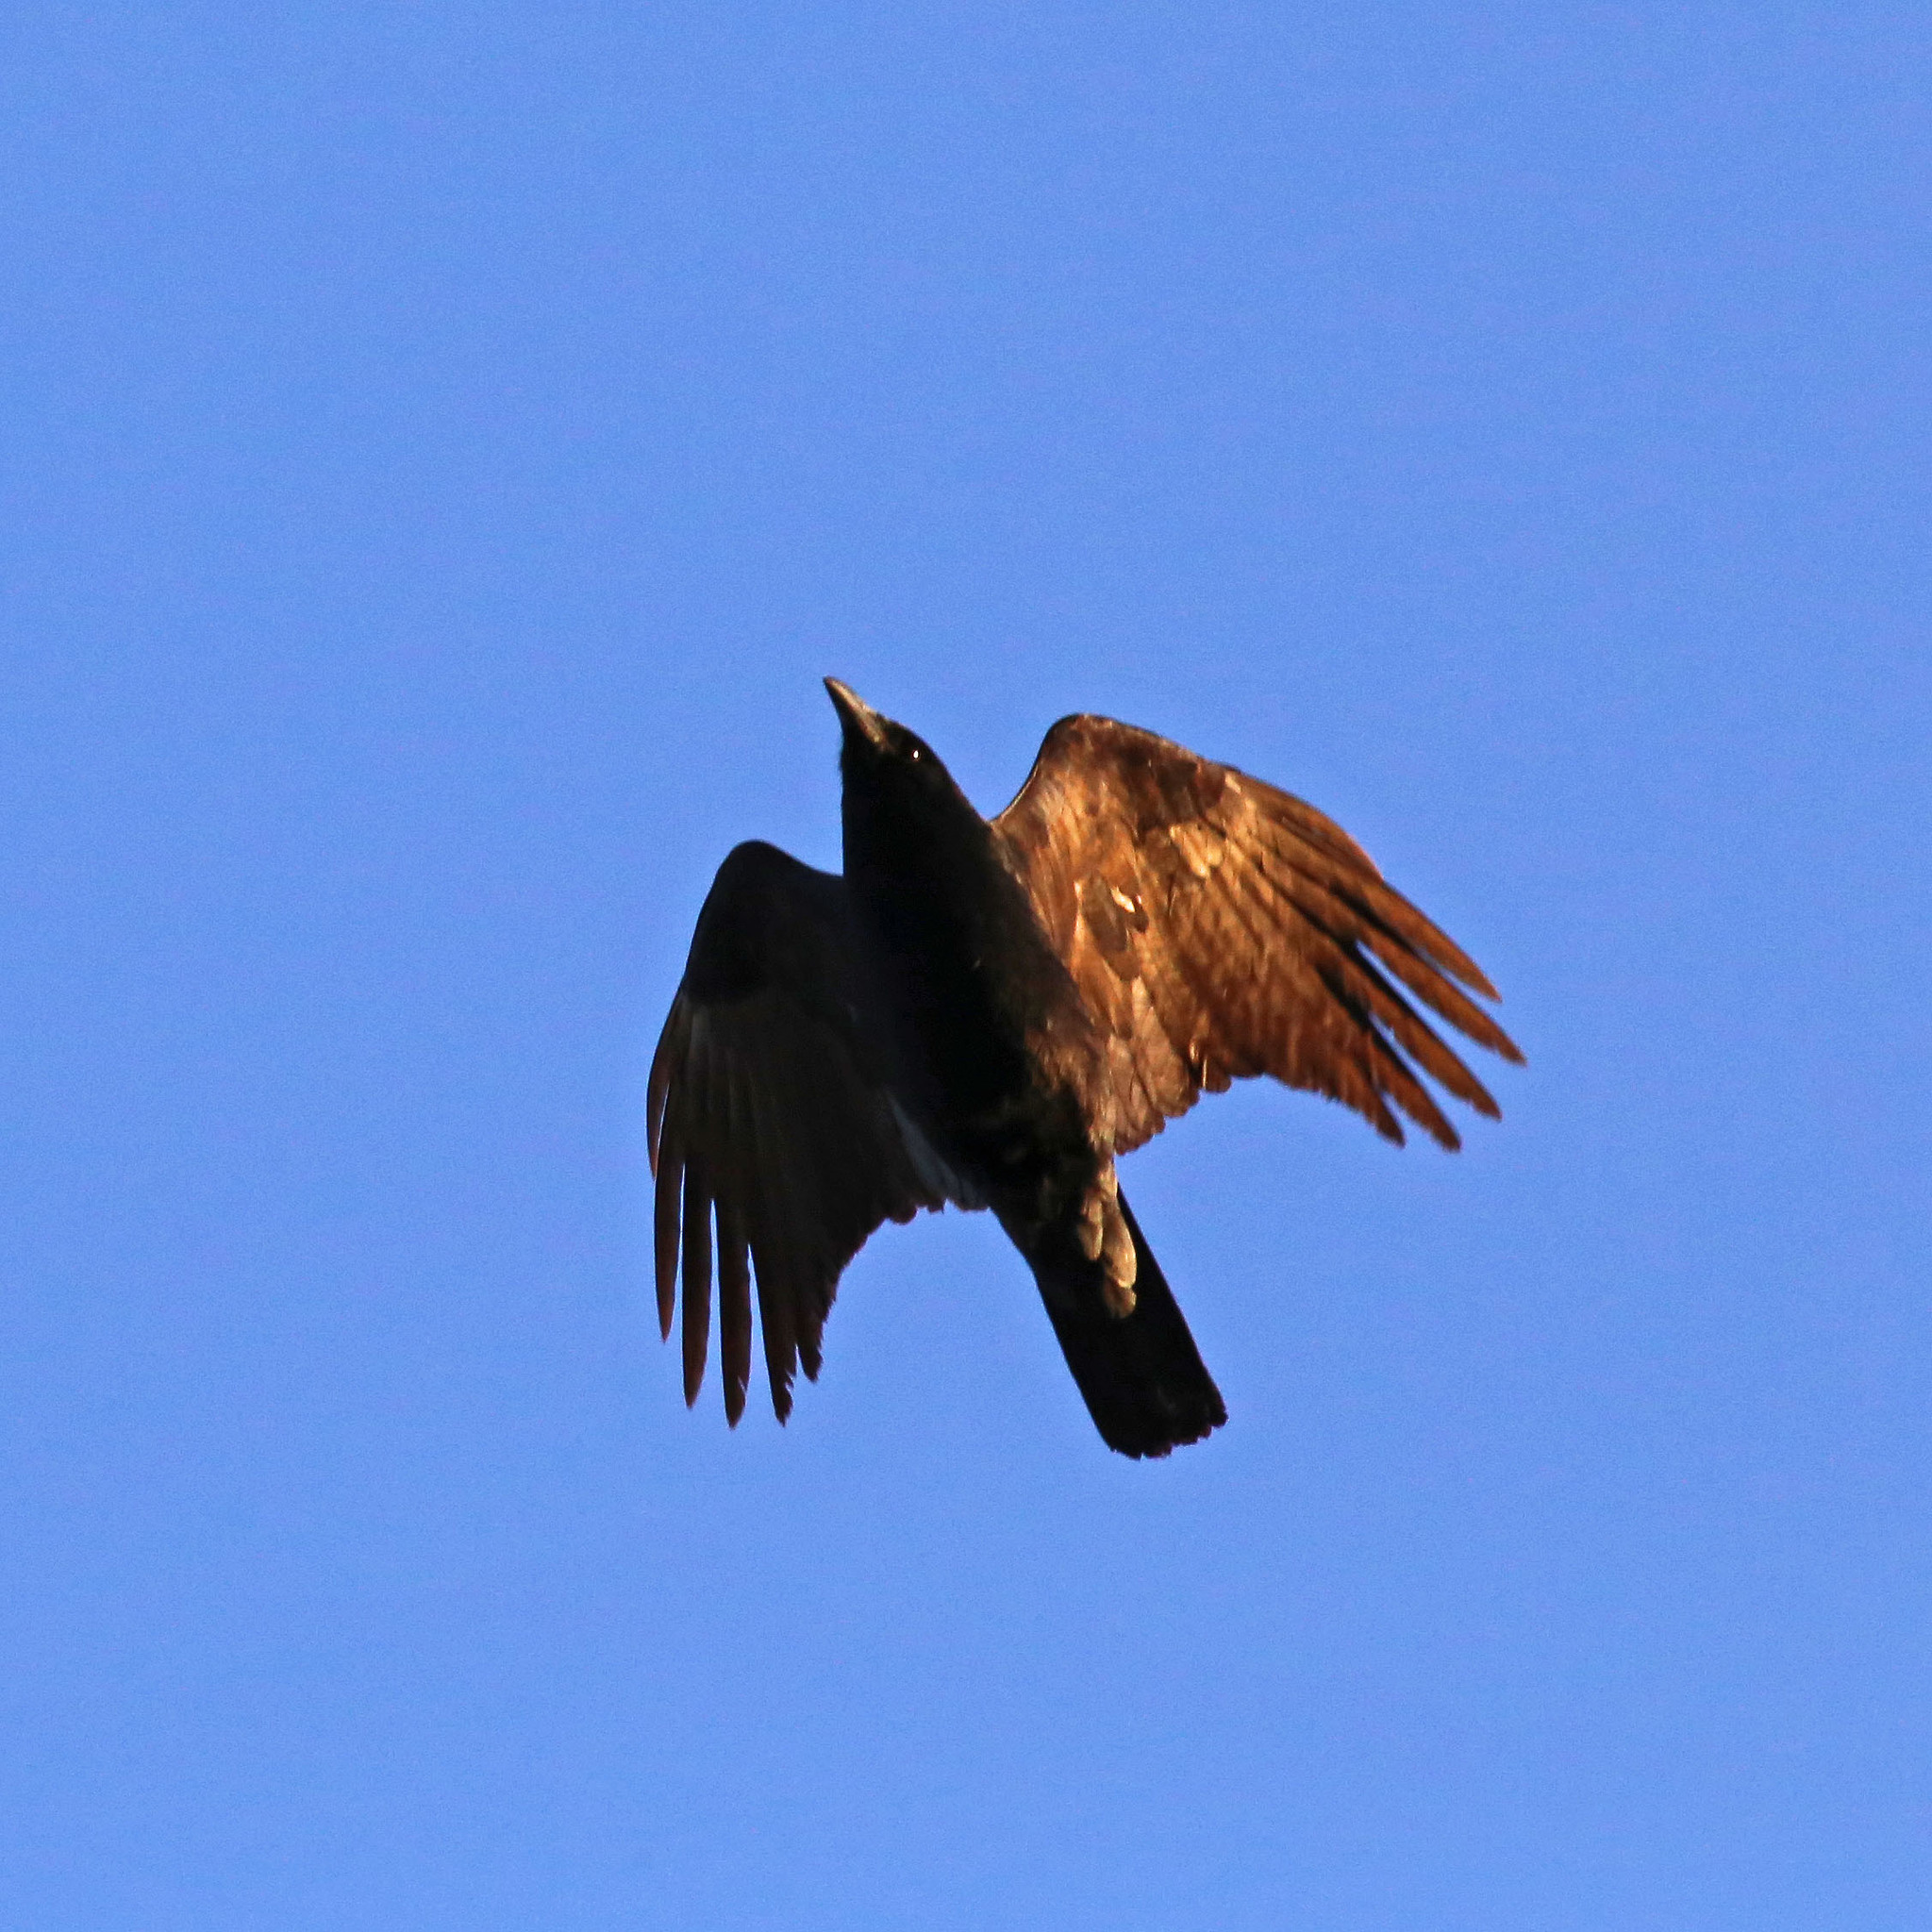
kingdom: Animalia
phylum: Chordata
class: Aves
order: Passeriformes
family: Corvidae
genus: Corvus
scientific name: Corvus ossifragus
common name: Fish crow
